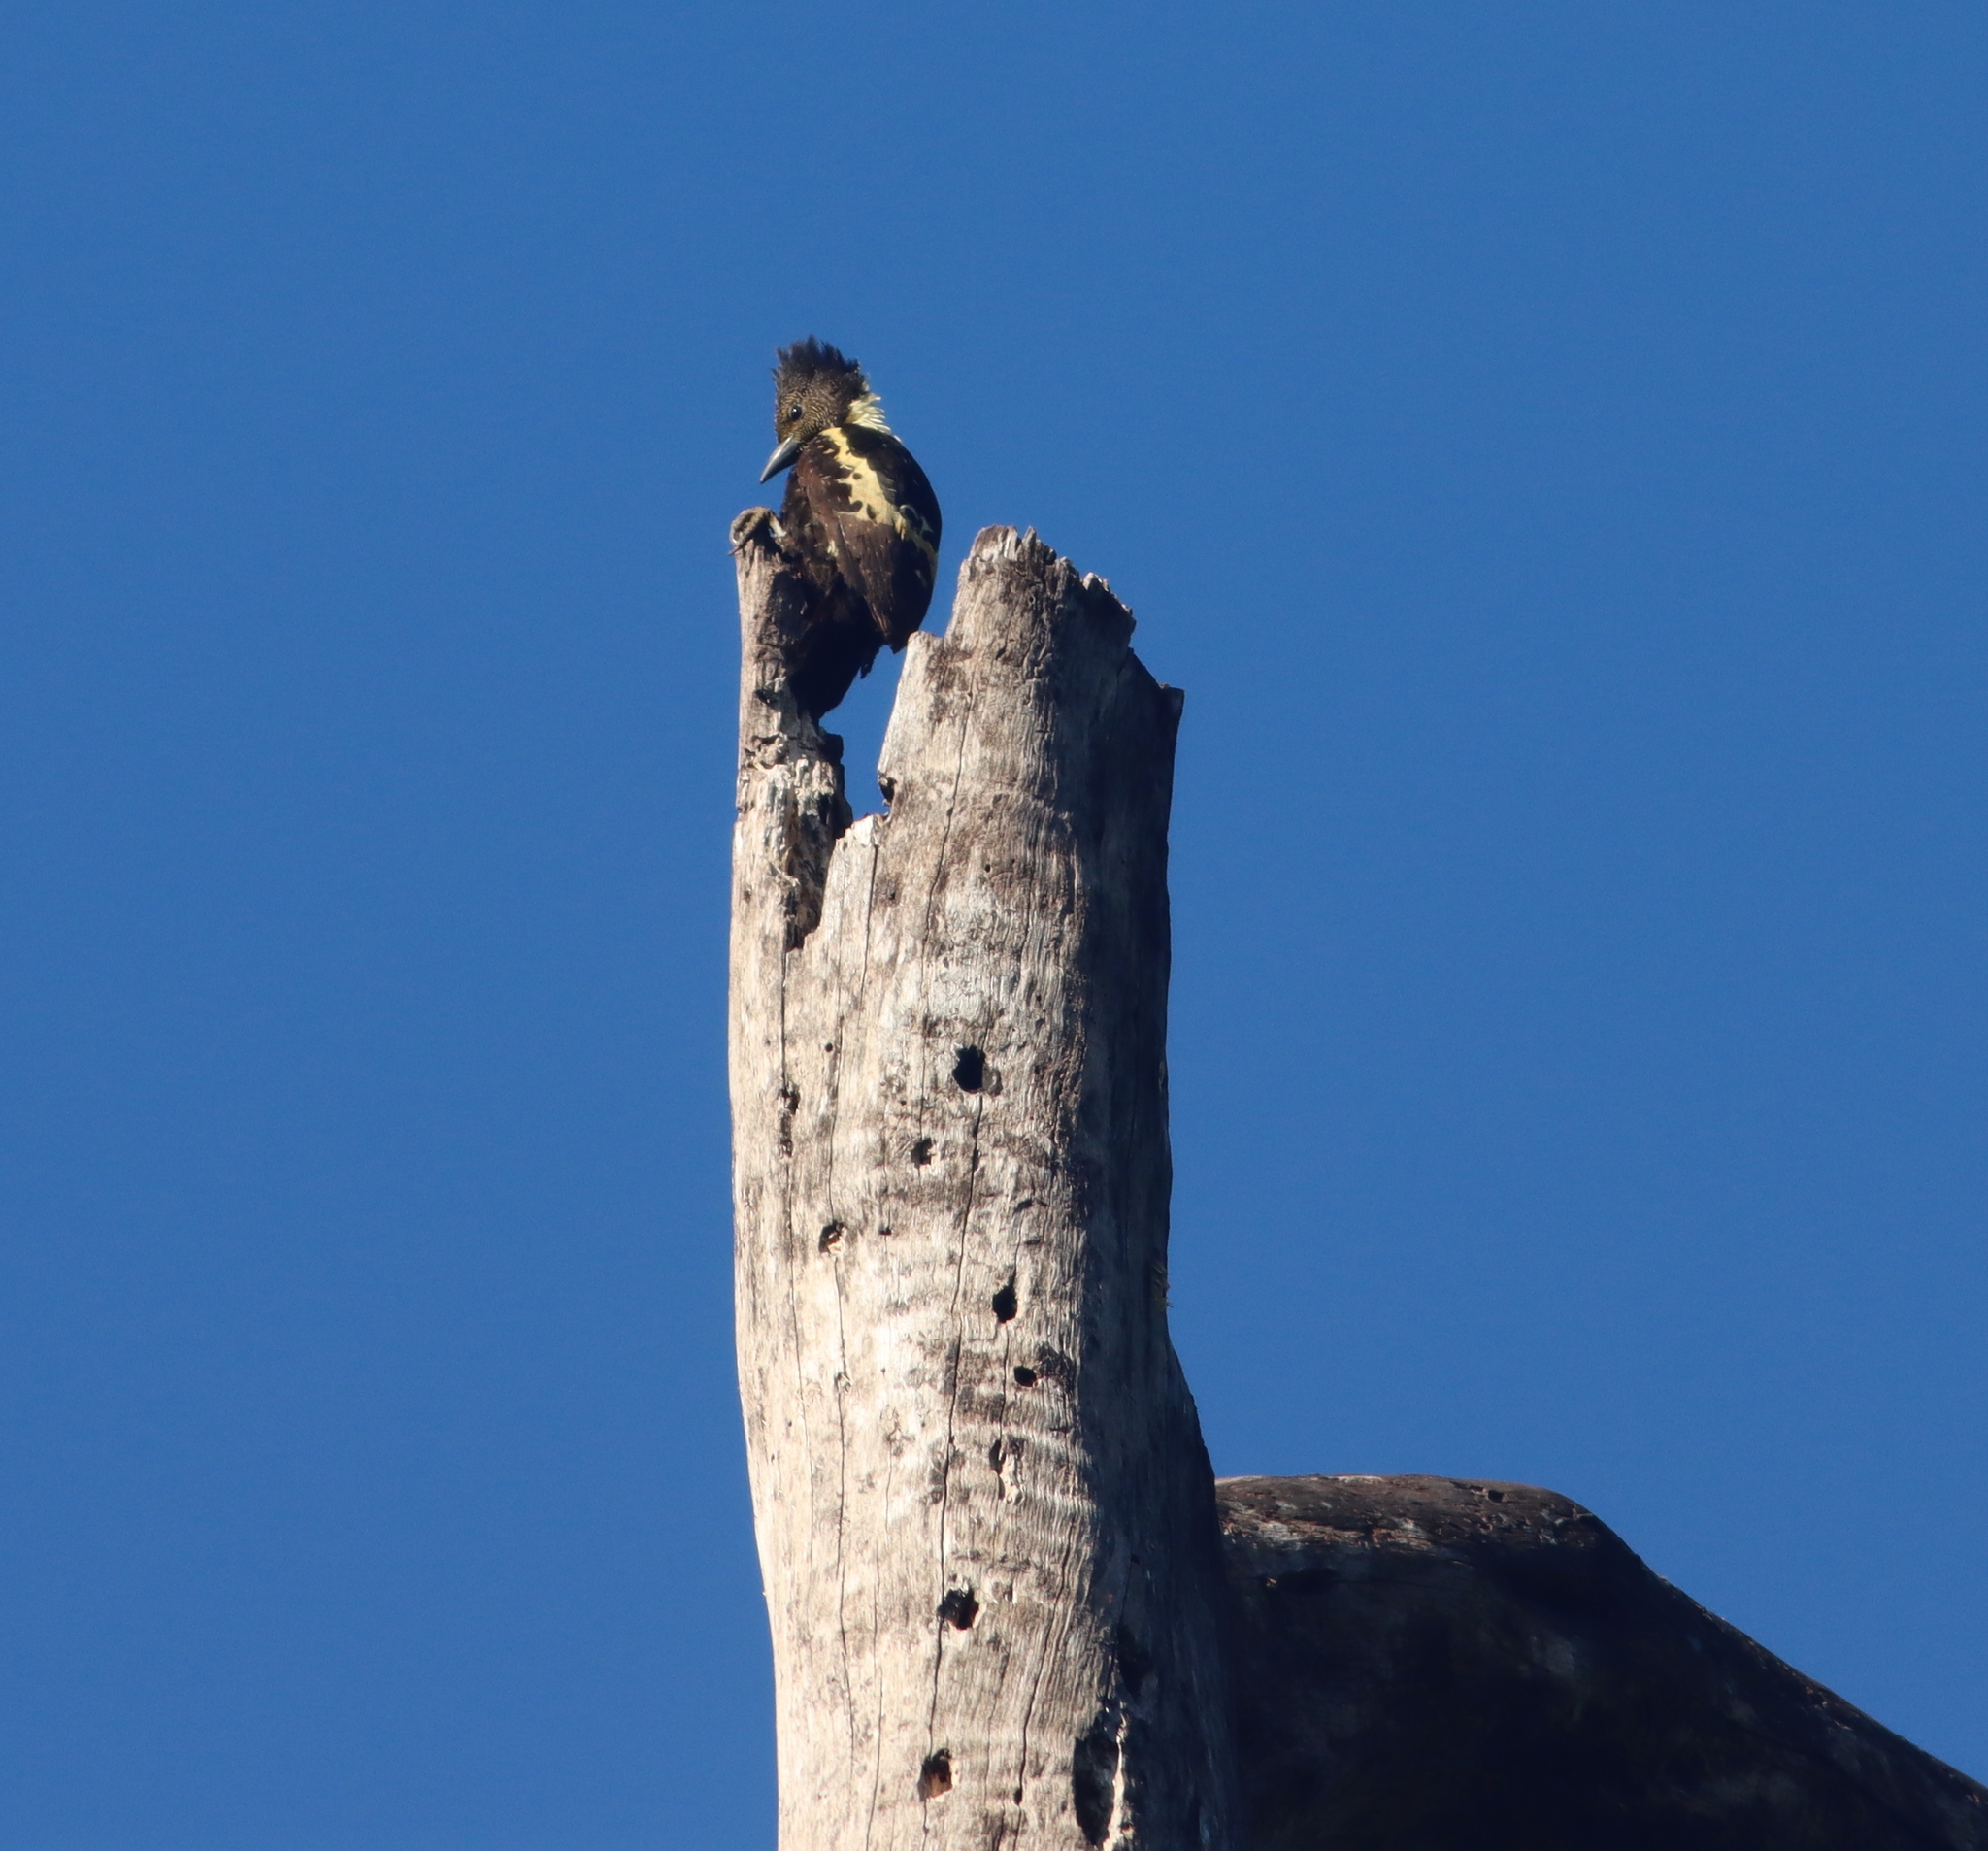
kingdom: Animalia
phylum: Chordata
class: Aves
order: Piciformes
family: Picidae
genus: Meiglyptes
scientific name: Meiglyptes jugularis
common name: Black-and-buff woodpecker
